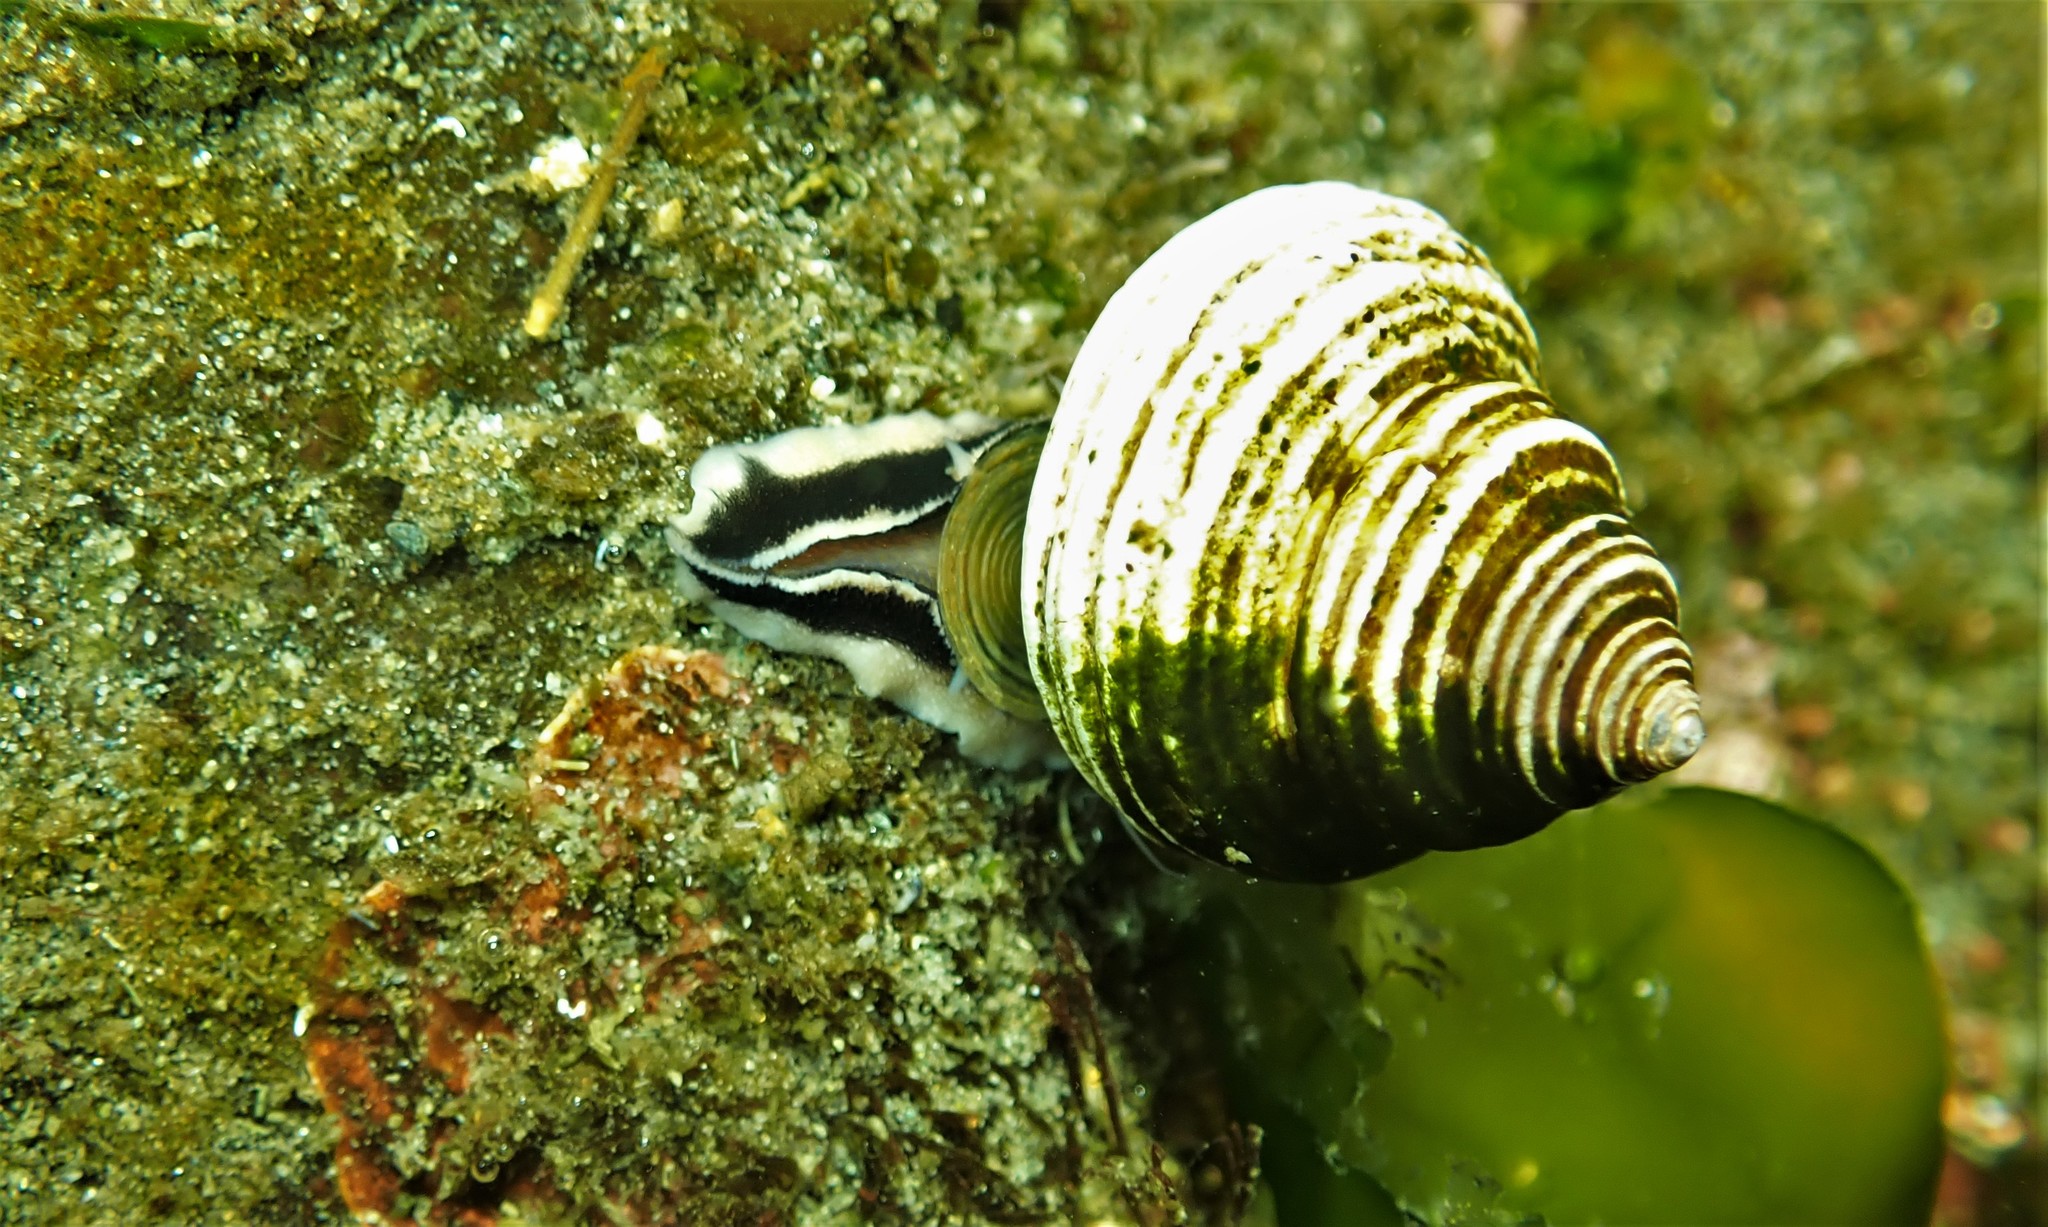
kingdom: Animalia
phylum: Mollusca
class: Gastropoda
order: Trochida
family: Calliostomatidae
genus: Calliostoma
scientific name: Calliostoma ligatum
